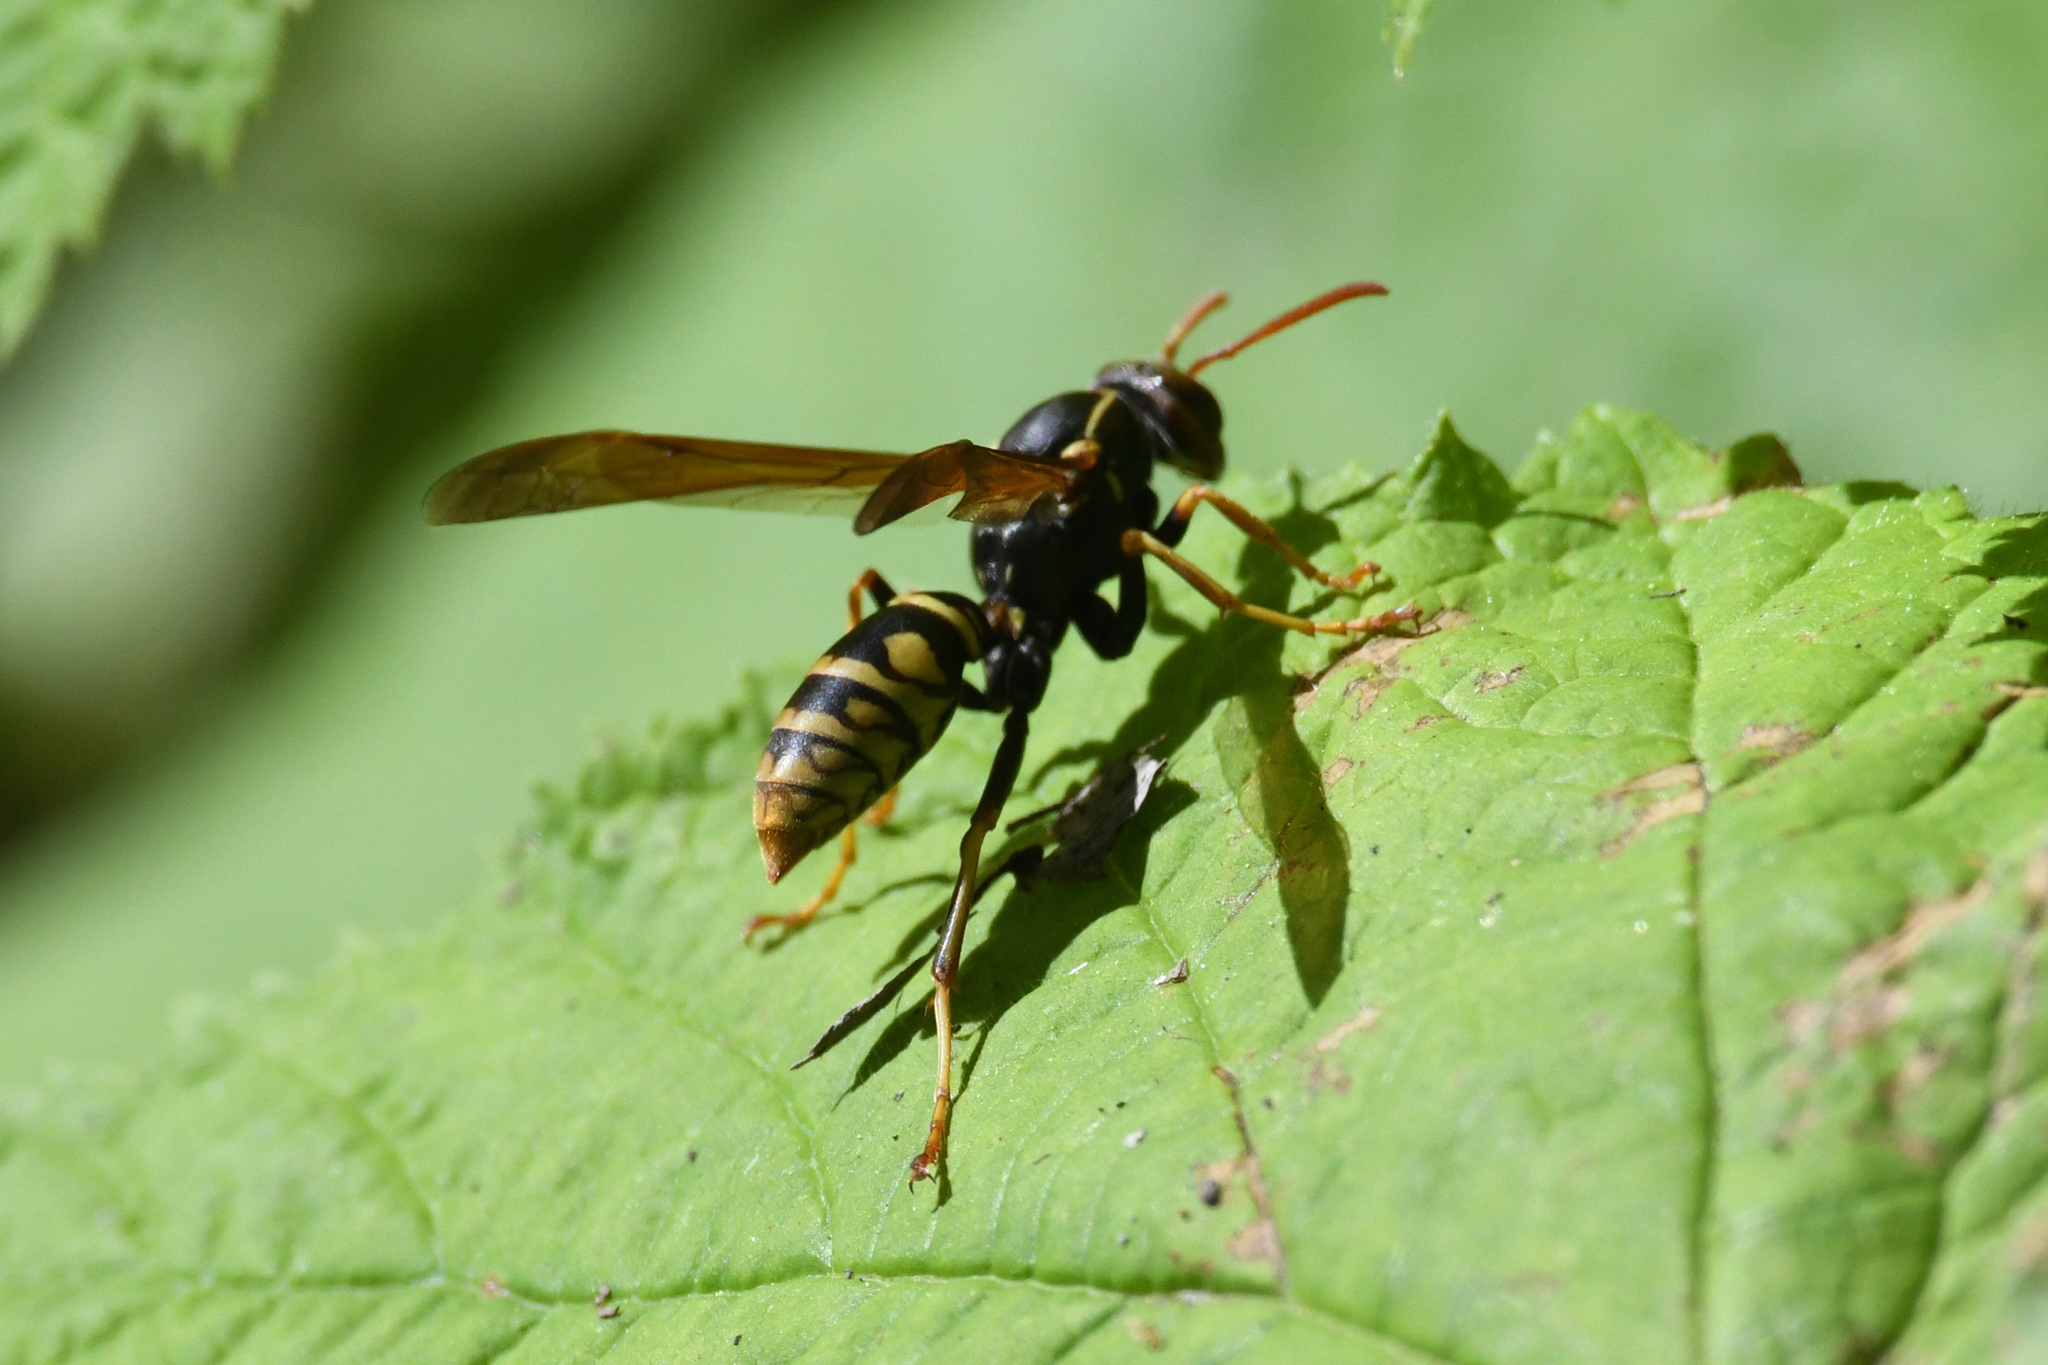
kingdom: Animalia
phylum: Arthropoda
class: Insecta
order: Hymenoptera
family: Eumenidae
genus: Polistes
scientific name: Polistes aurifer
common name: Paper wasp
